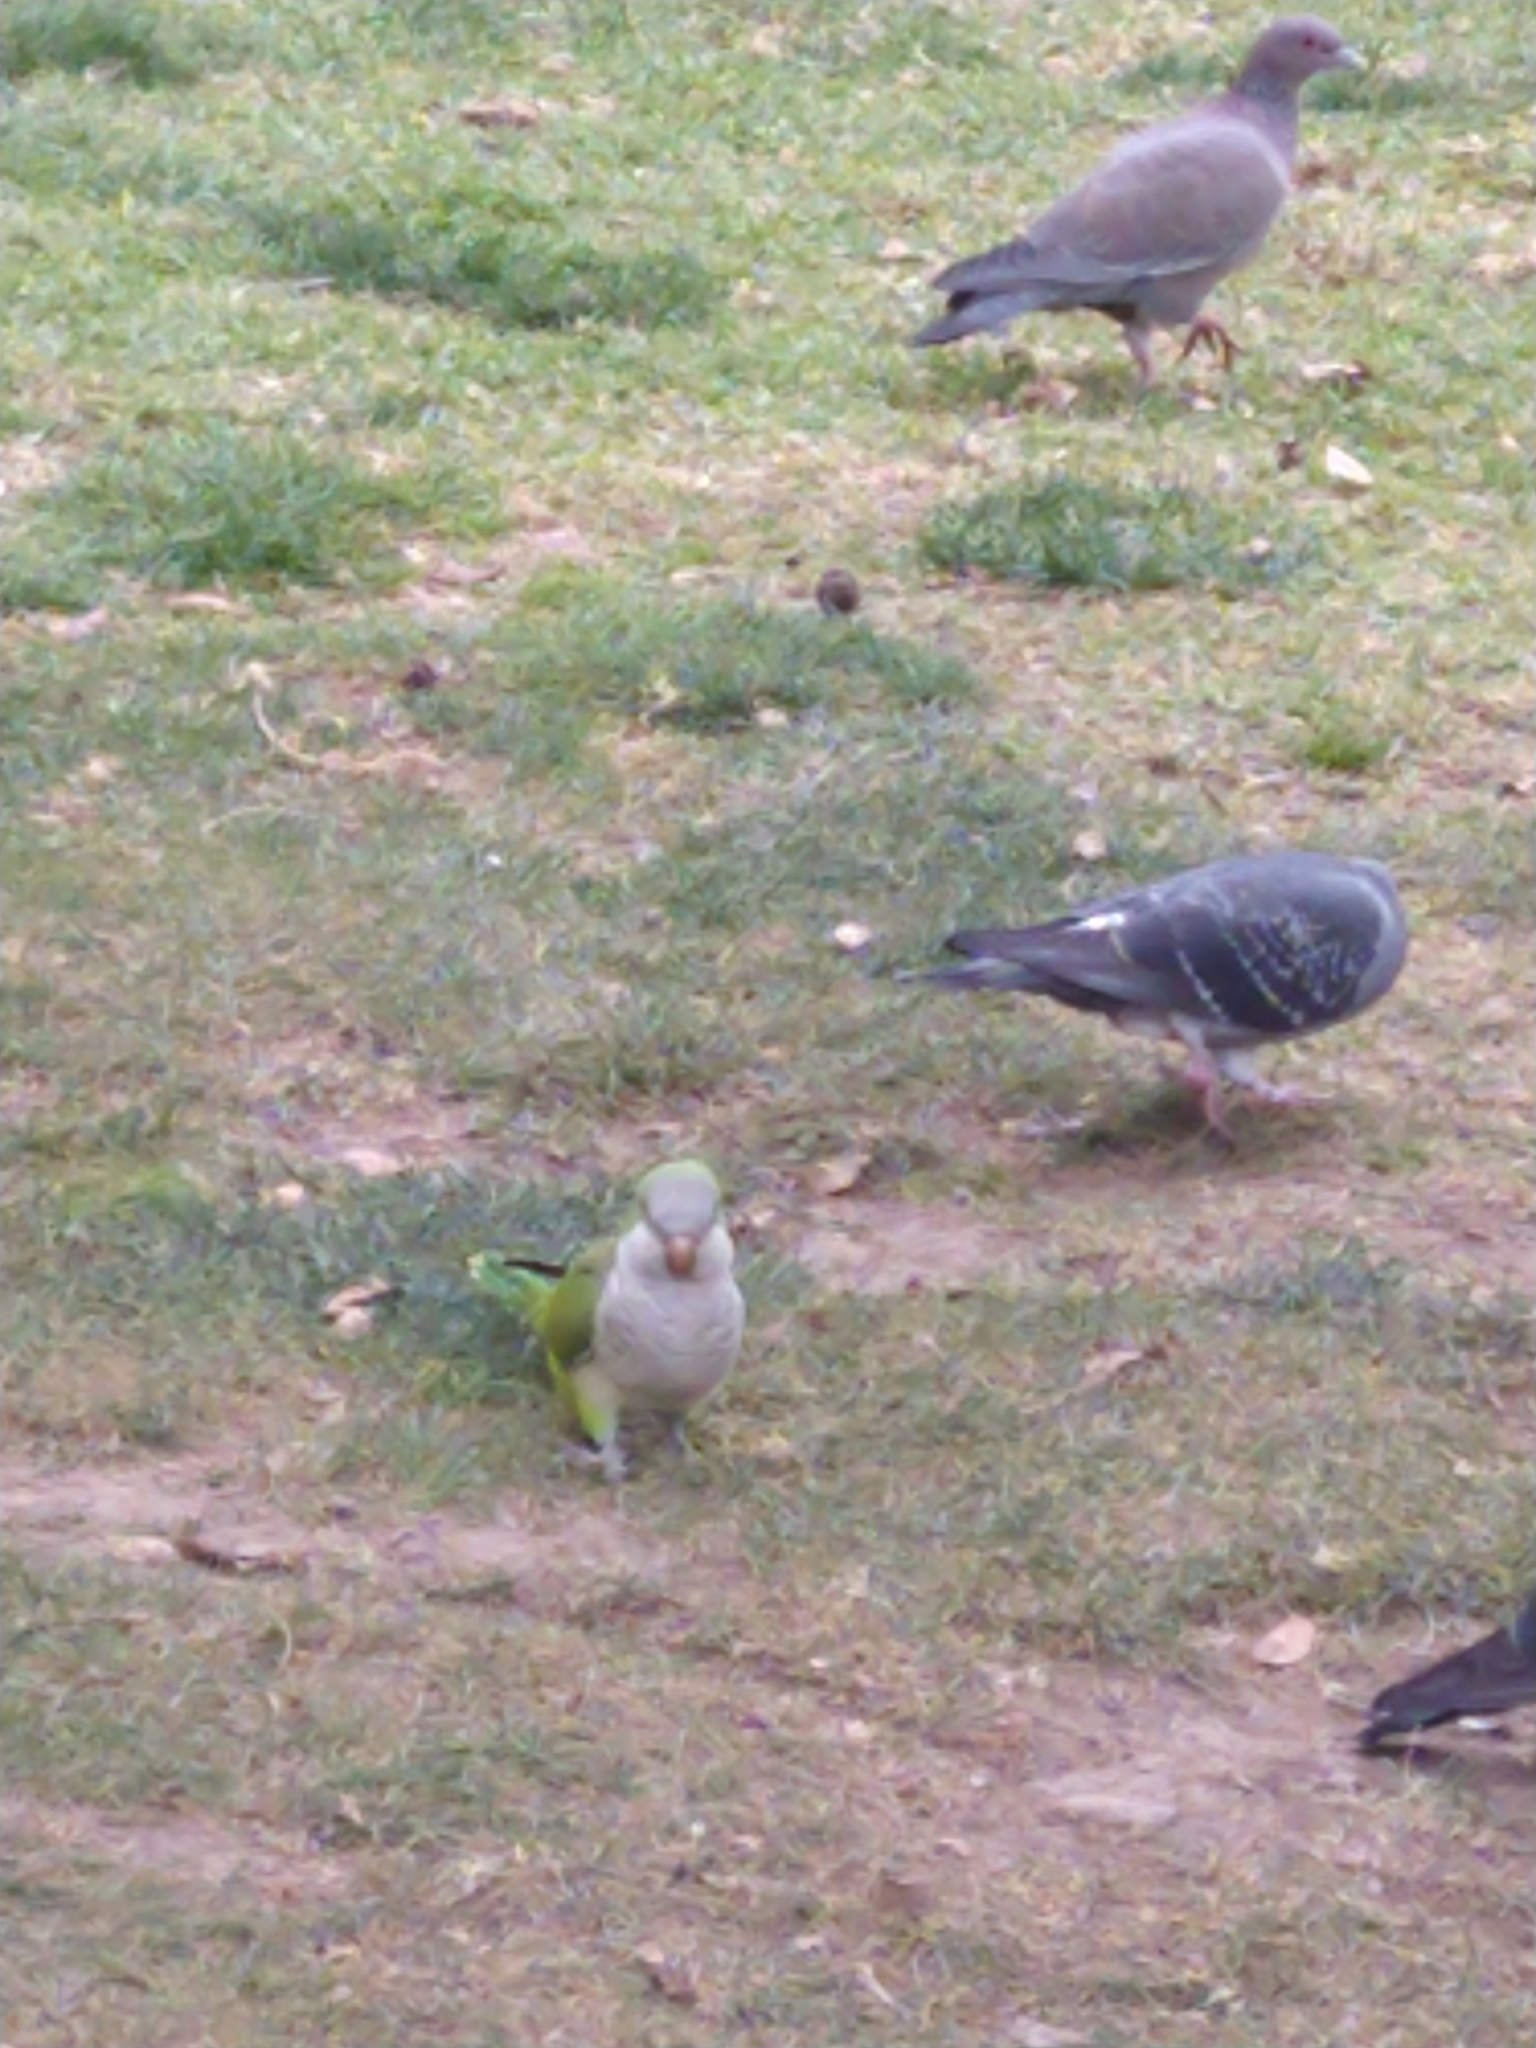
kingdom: Animalia
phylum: Chordata
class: Aves
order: Psittaciformes
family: Psittacidae
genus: Myiopsitta
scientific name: Myiopsitta monachus
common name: Monk parakeet
